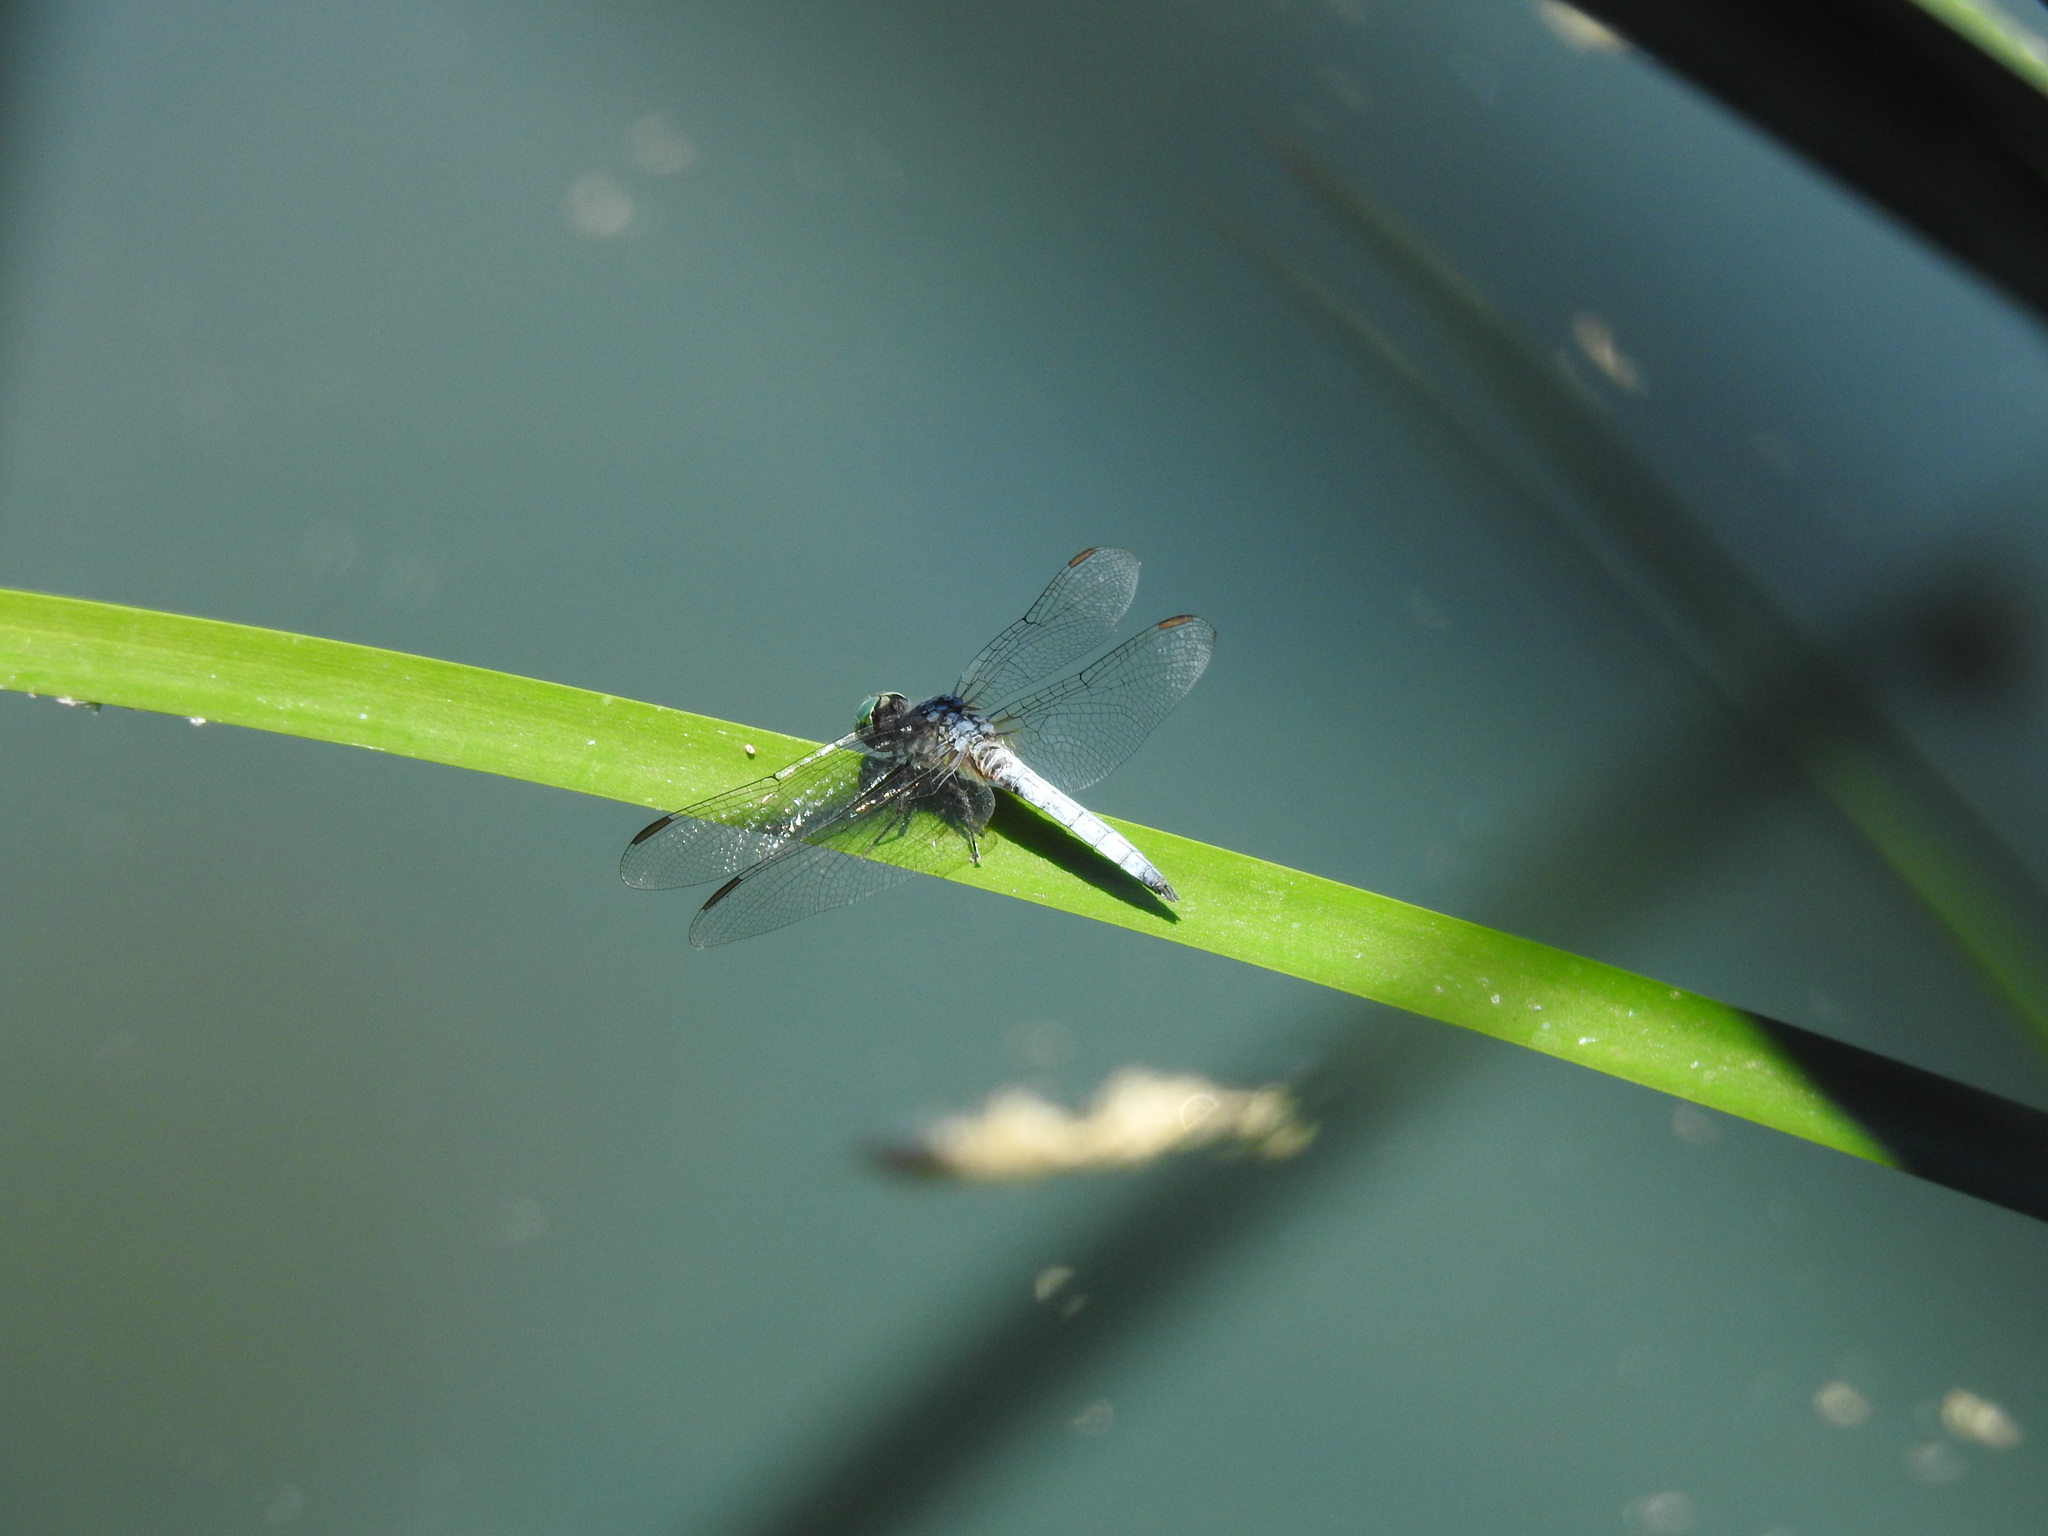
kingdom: Animalia
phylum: Arthropoda
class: Insecta
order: Odonata
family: Libellulidae
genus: Pachydiplax
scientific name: Pachydiplax longipennis
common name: Blue dasher
